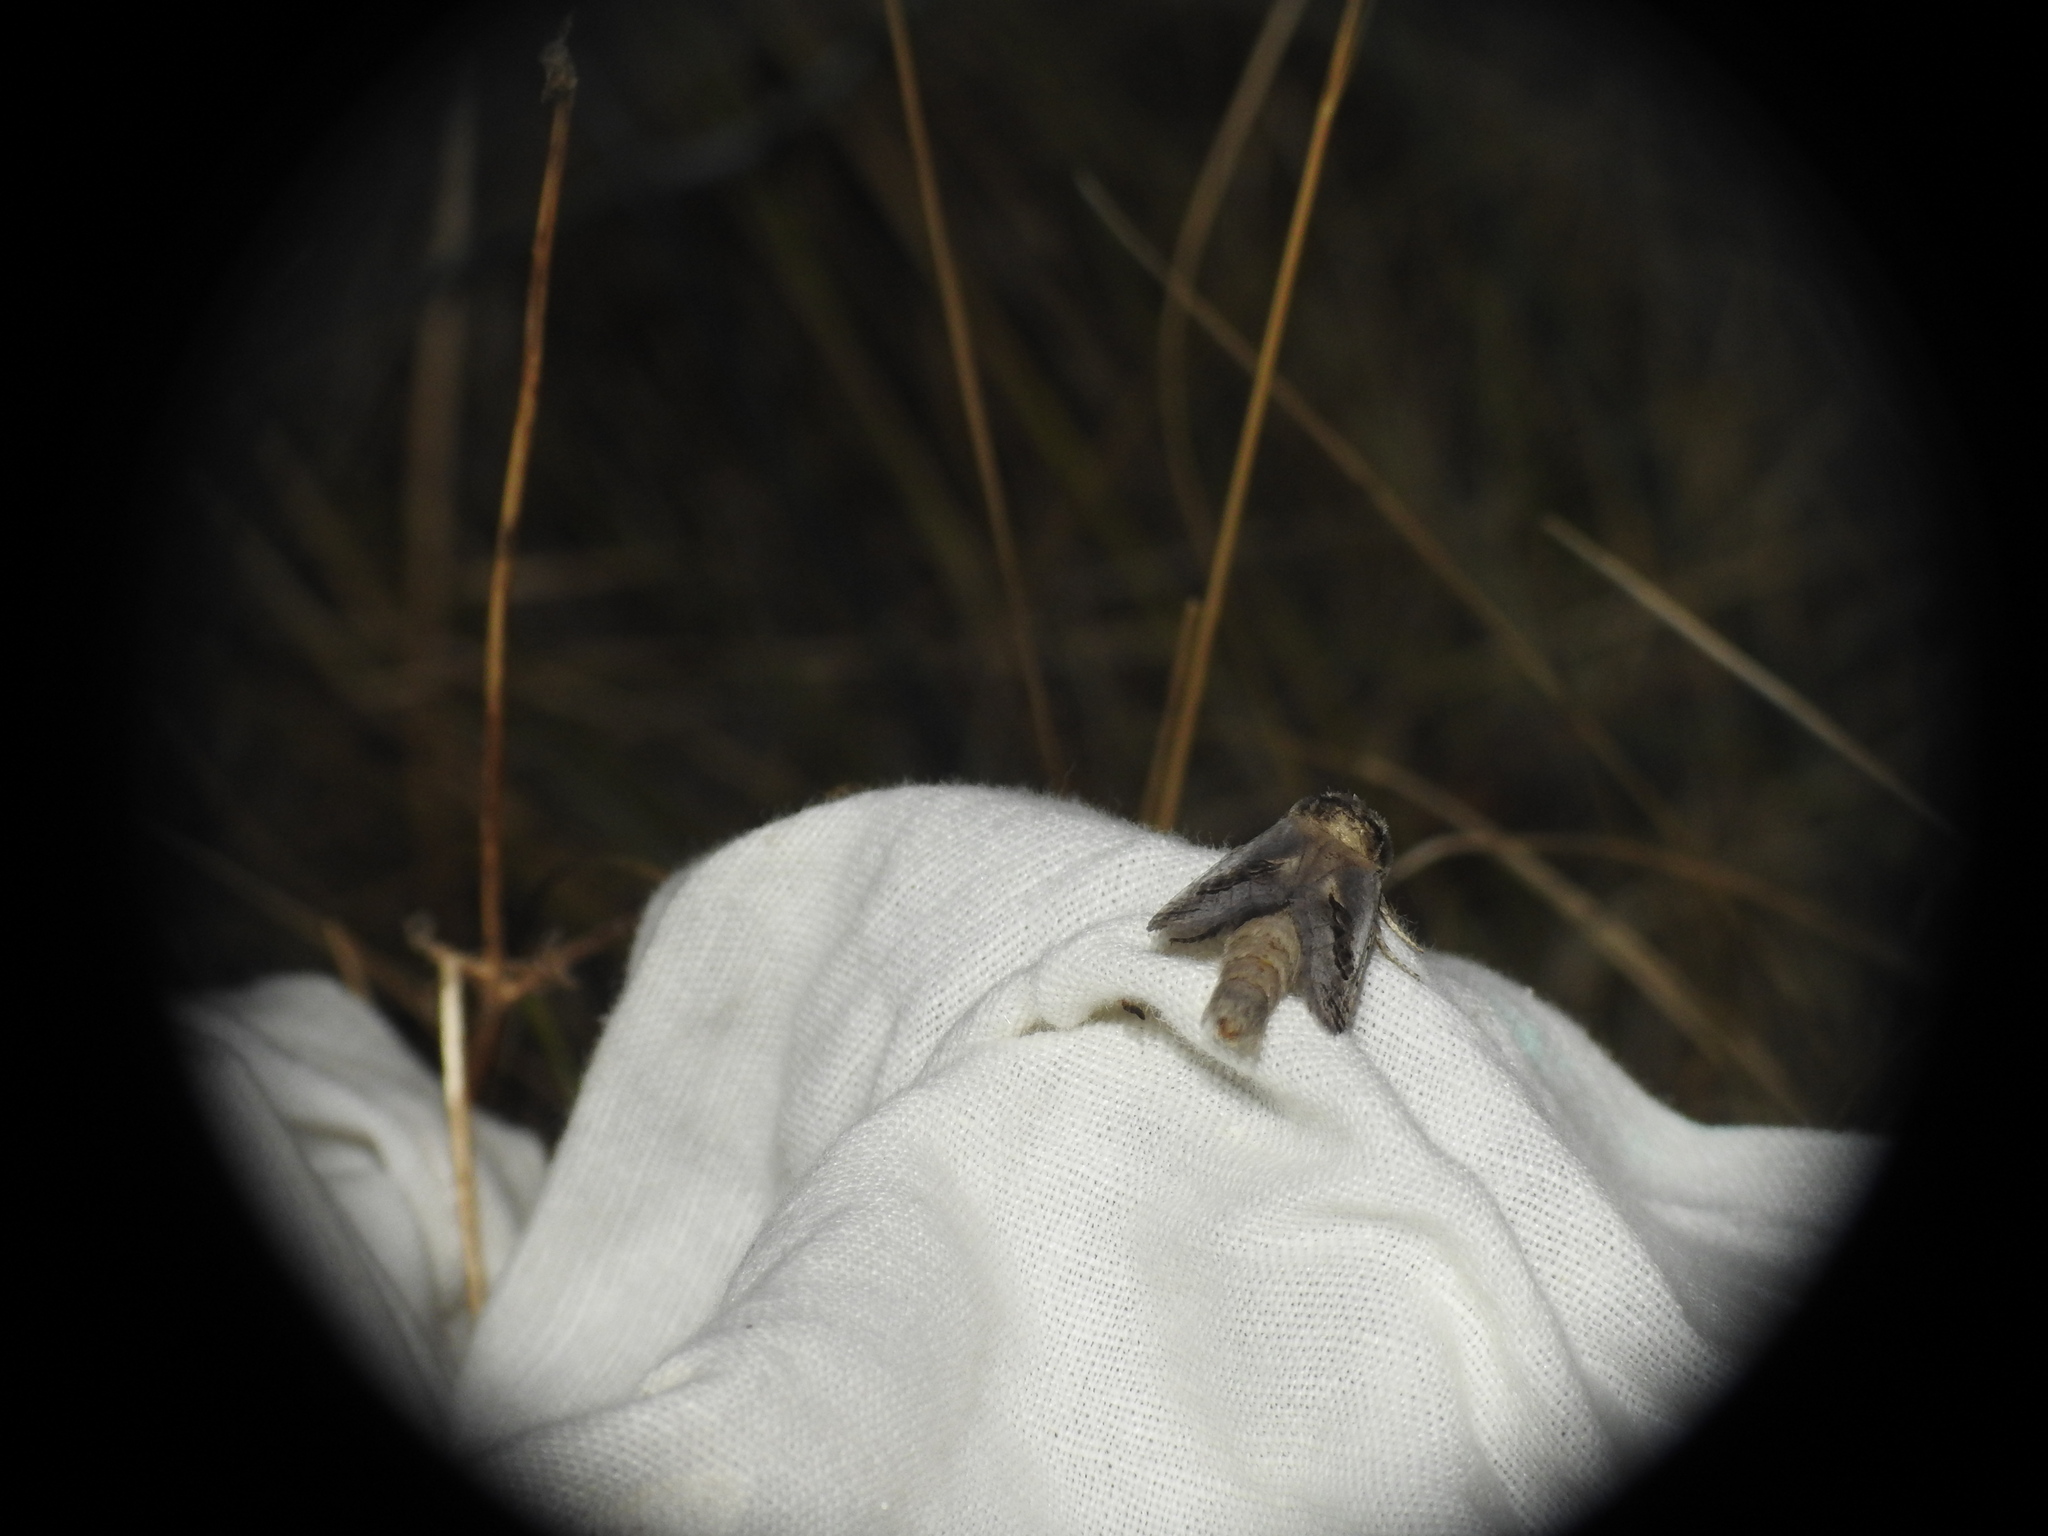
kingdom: Animalia
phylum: Arthropoda
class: Insecta
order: Lepidoptera
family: Cossidae
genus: Parahypopta
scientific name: Parahypopta caestrum
